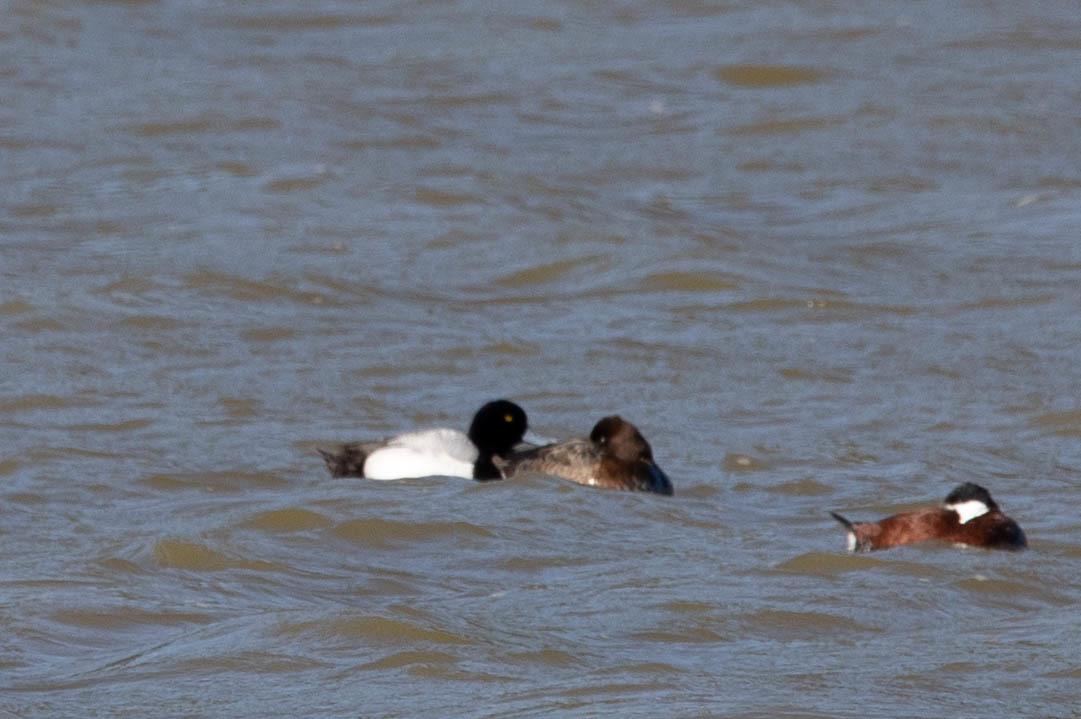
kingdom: Animalia
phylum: Chordata
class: Aves
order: Anseriformes
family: Anatidae
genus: Aythya
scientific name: Aythya marila
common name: Greater scaup
